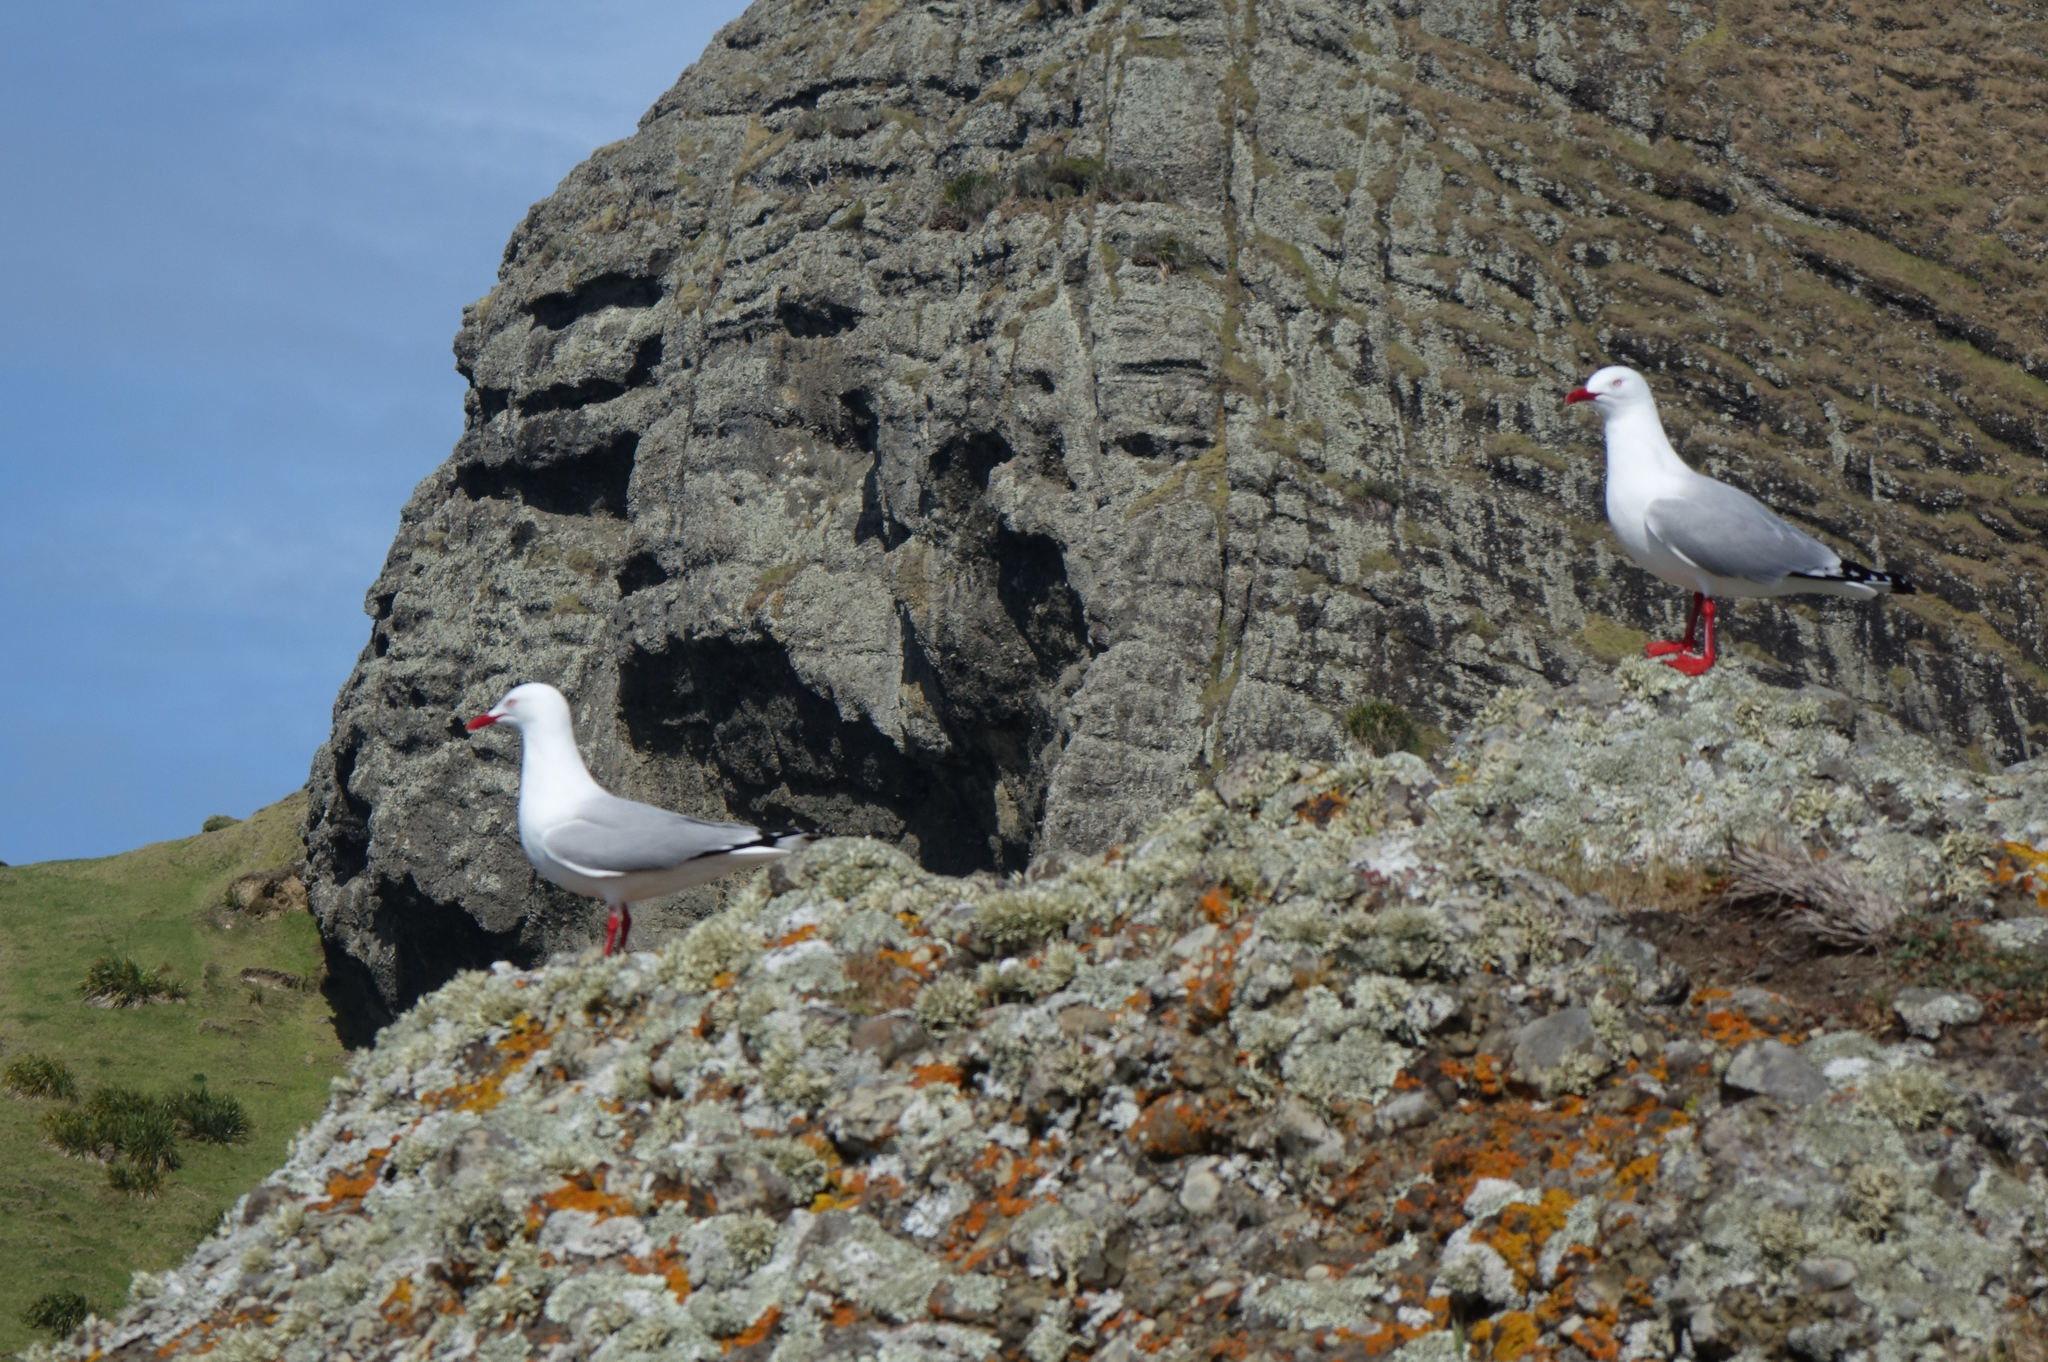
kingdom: Animalia
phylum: Chordata
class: Aves
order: Charadriiformes
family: Laridae
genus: Chroicocephalus
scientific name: Chroicocephalus novaehollandiae
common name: Silver gull
